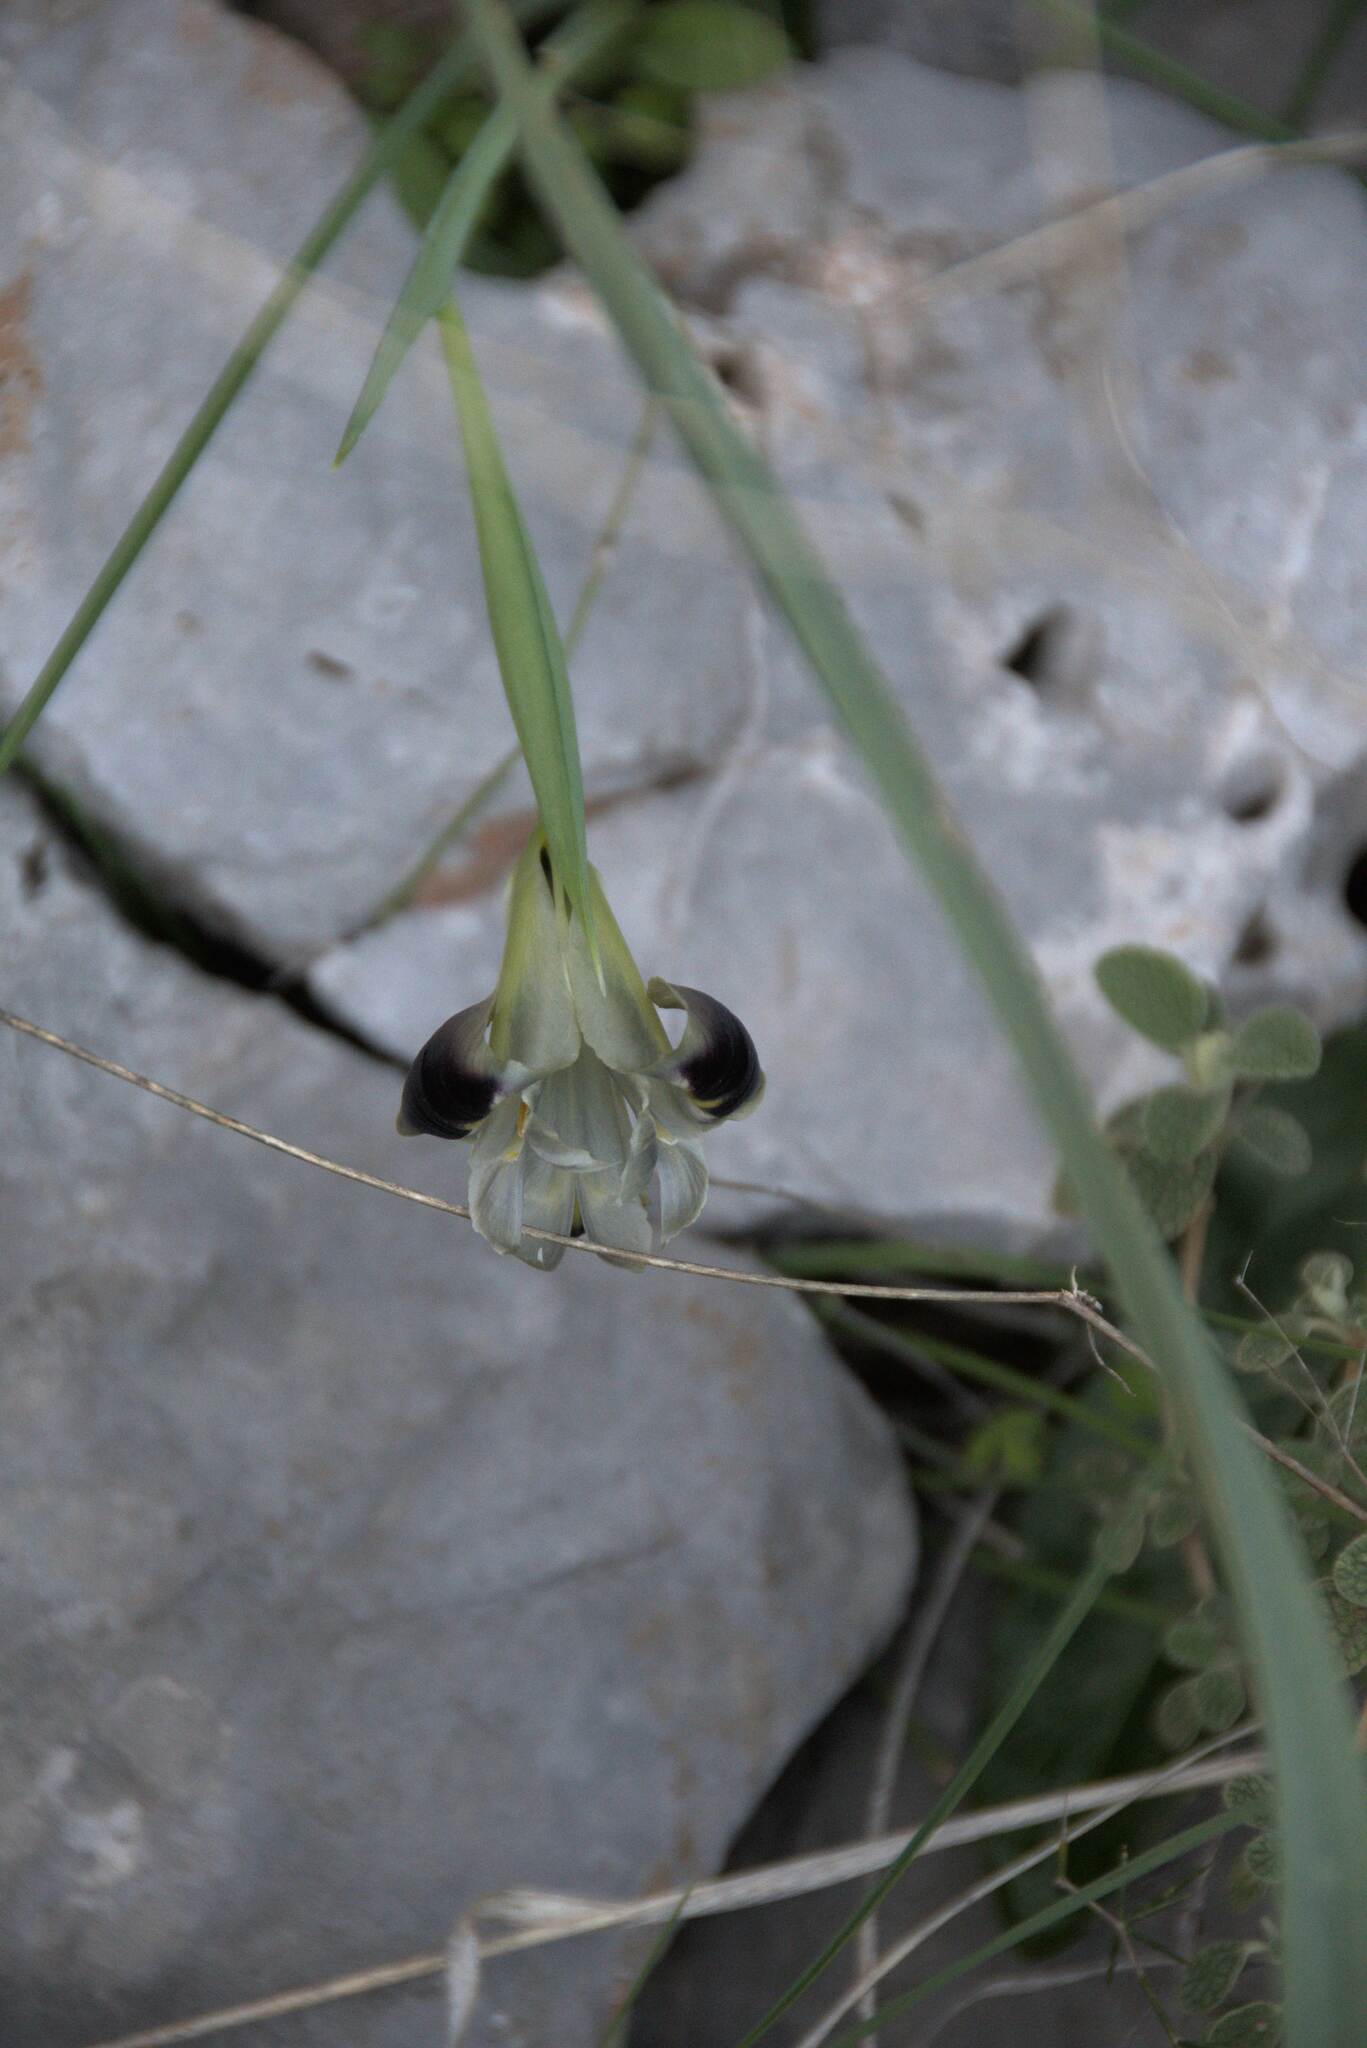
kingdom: Plantae
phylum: Tracheophyta
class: Liliopsida
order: Asparagales
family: Iridaceae
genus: Iris
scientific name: Iris tuberosa
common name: Snake's-head iris
